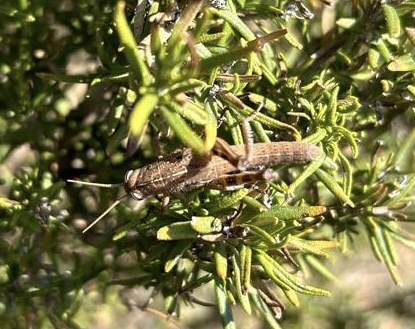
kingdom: Animalia
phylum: Arthropoda
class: Insecta
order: Orthoptera
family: Acrididae
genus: Anacridium
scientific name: Anacridium aegyptium
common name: Egyptian grasshopper
